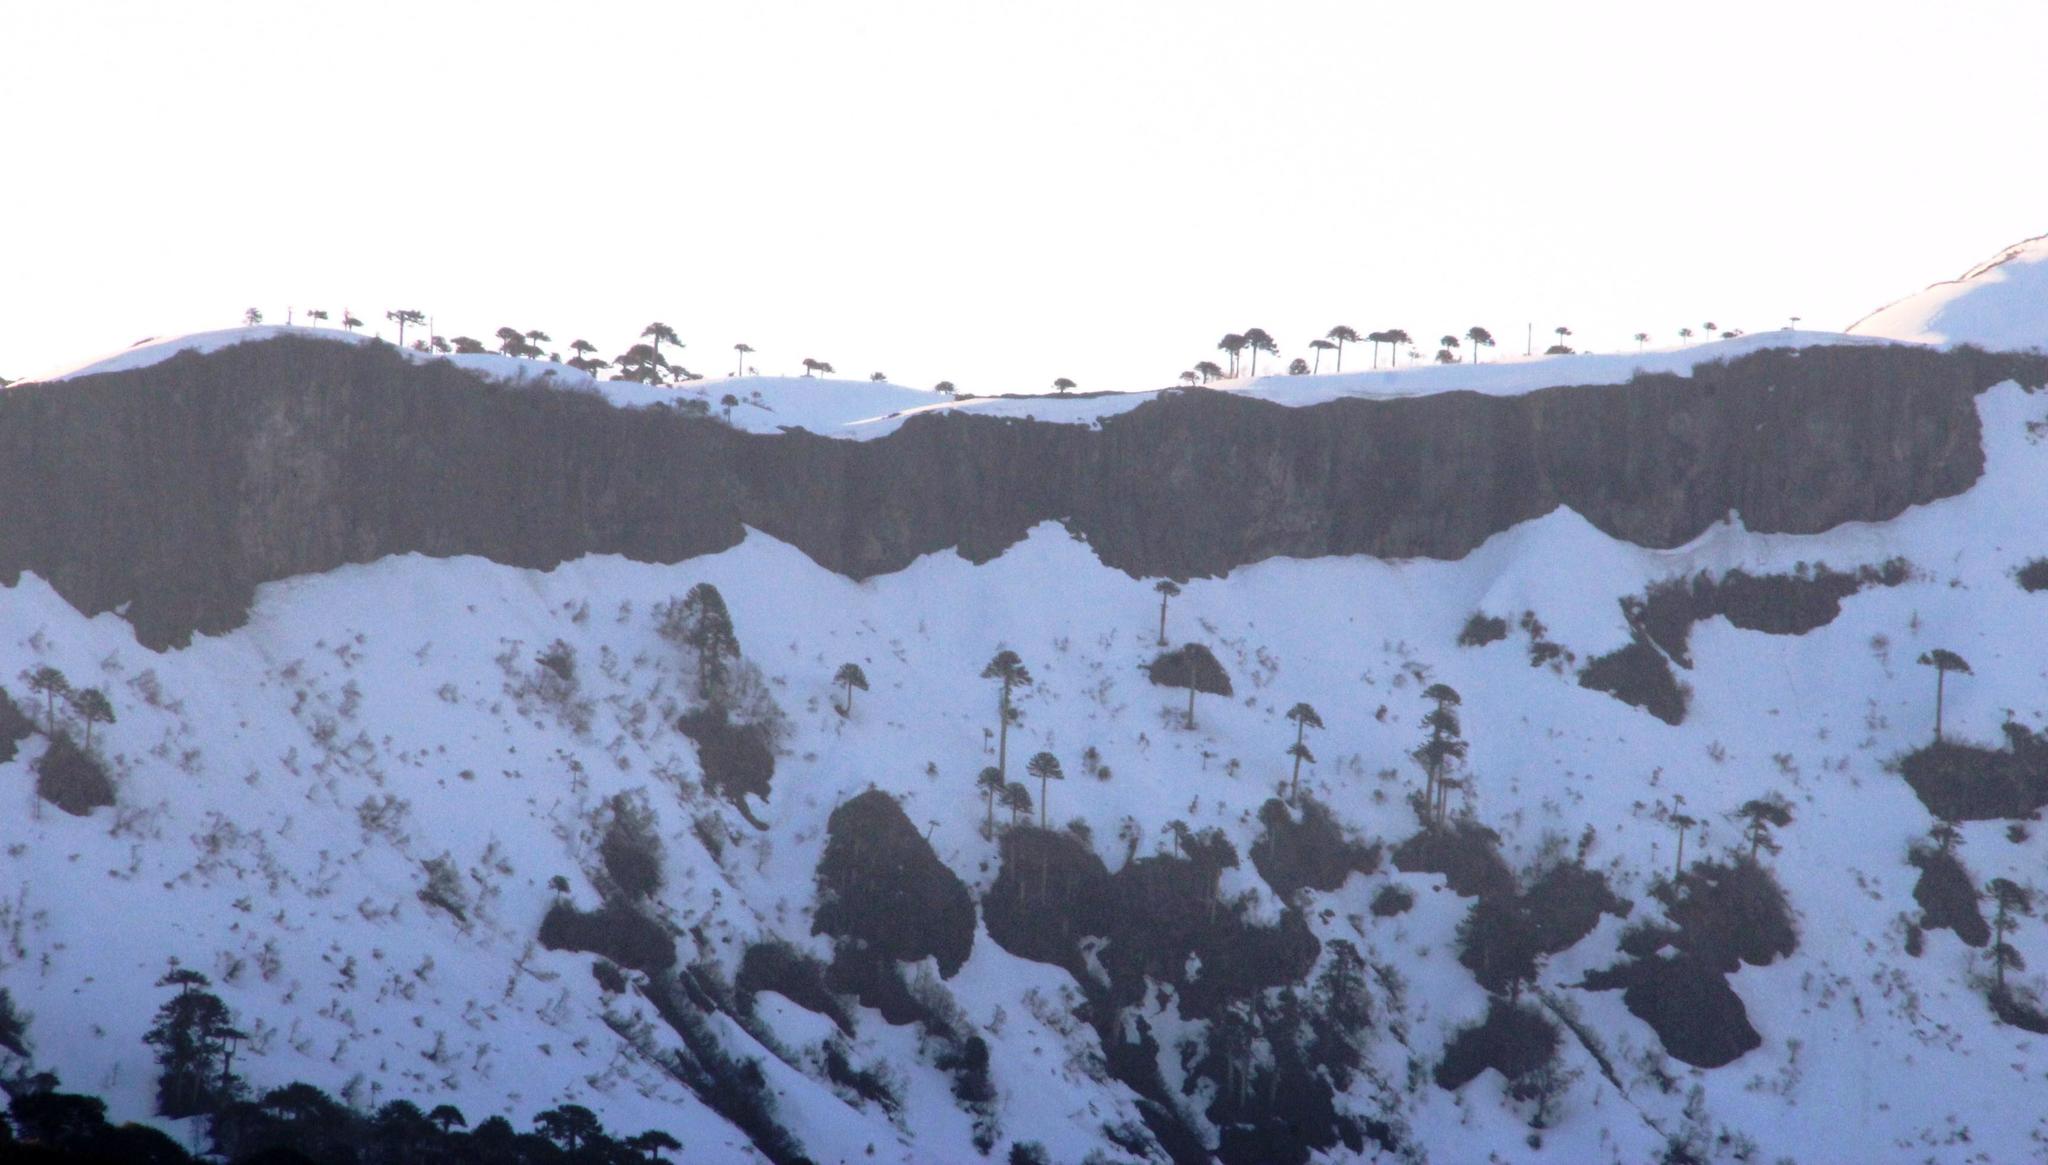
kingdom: Plantae
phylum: Tracheophyta
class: Pinopsida
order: Pinales
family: Araucariaceae
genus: Araucaria
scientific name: Araucaria araucana
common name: Monkey-puzzle
